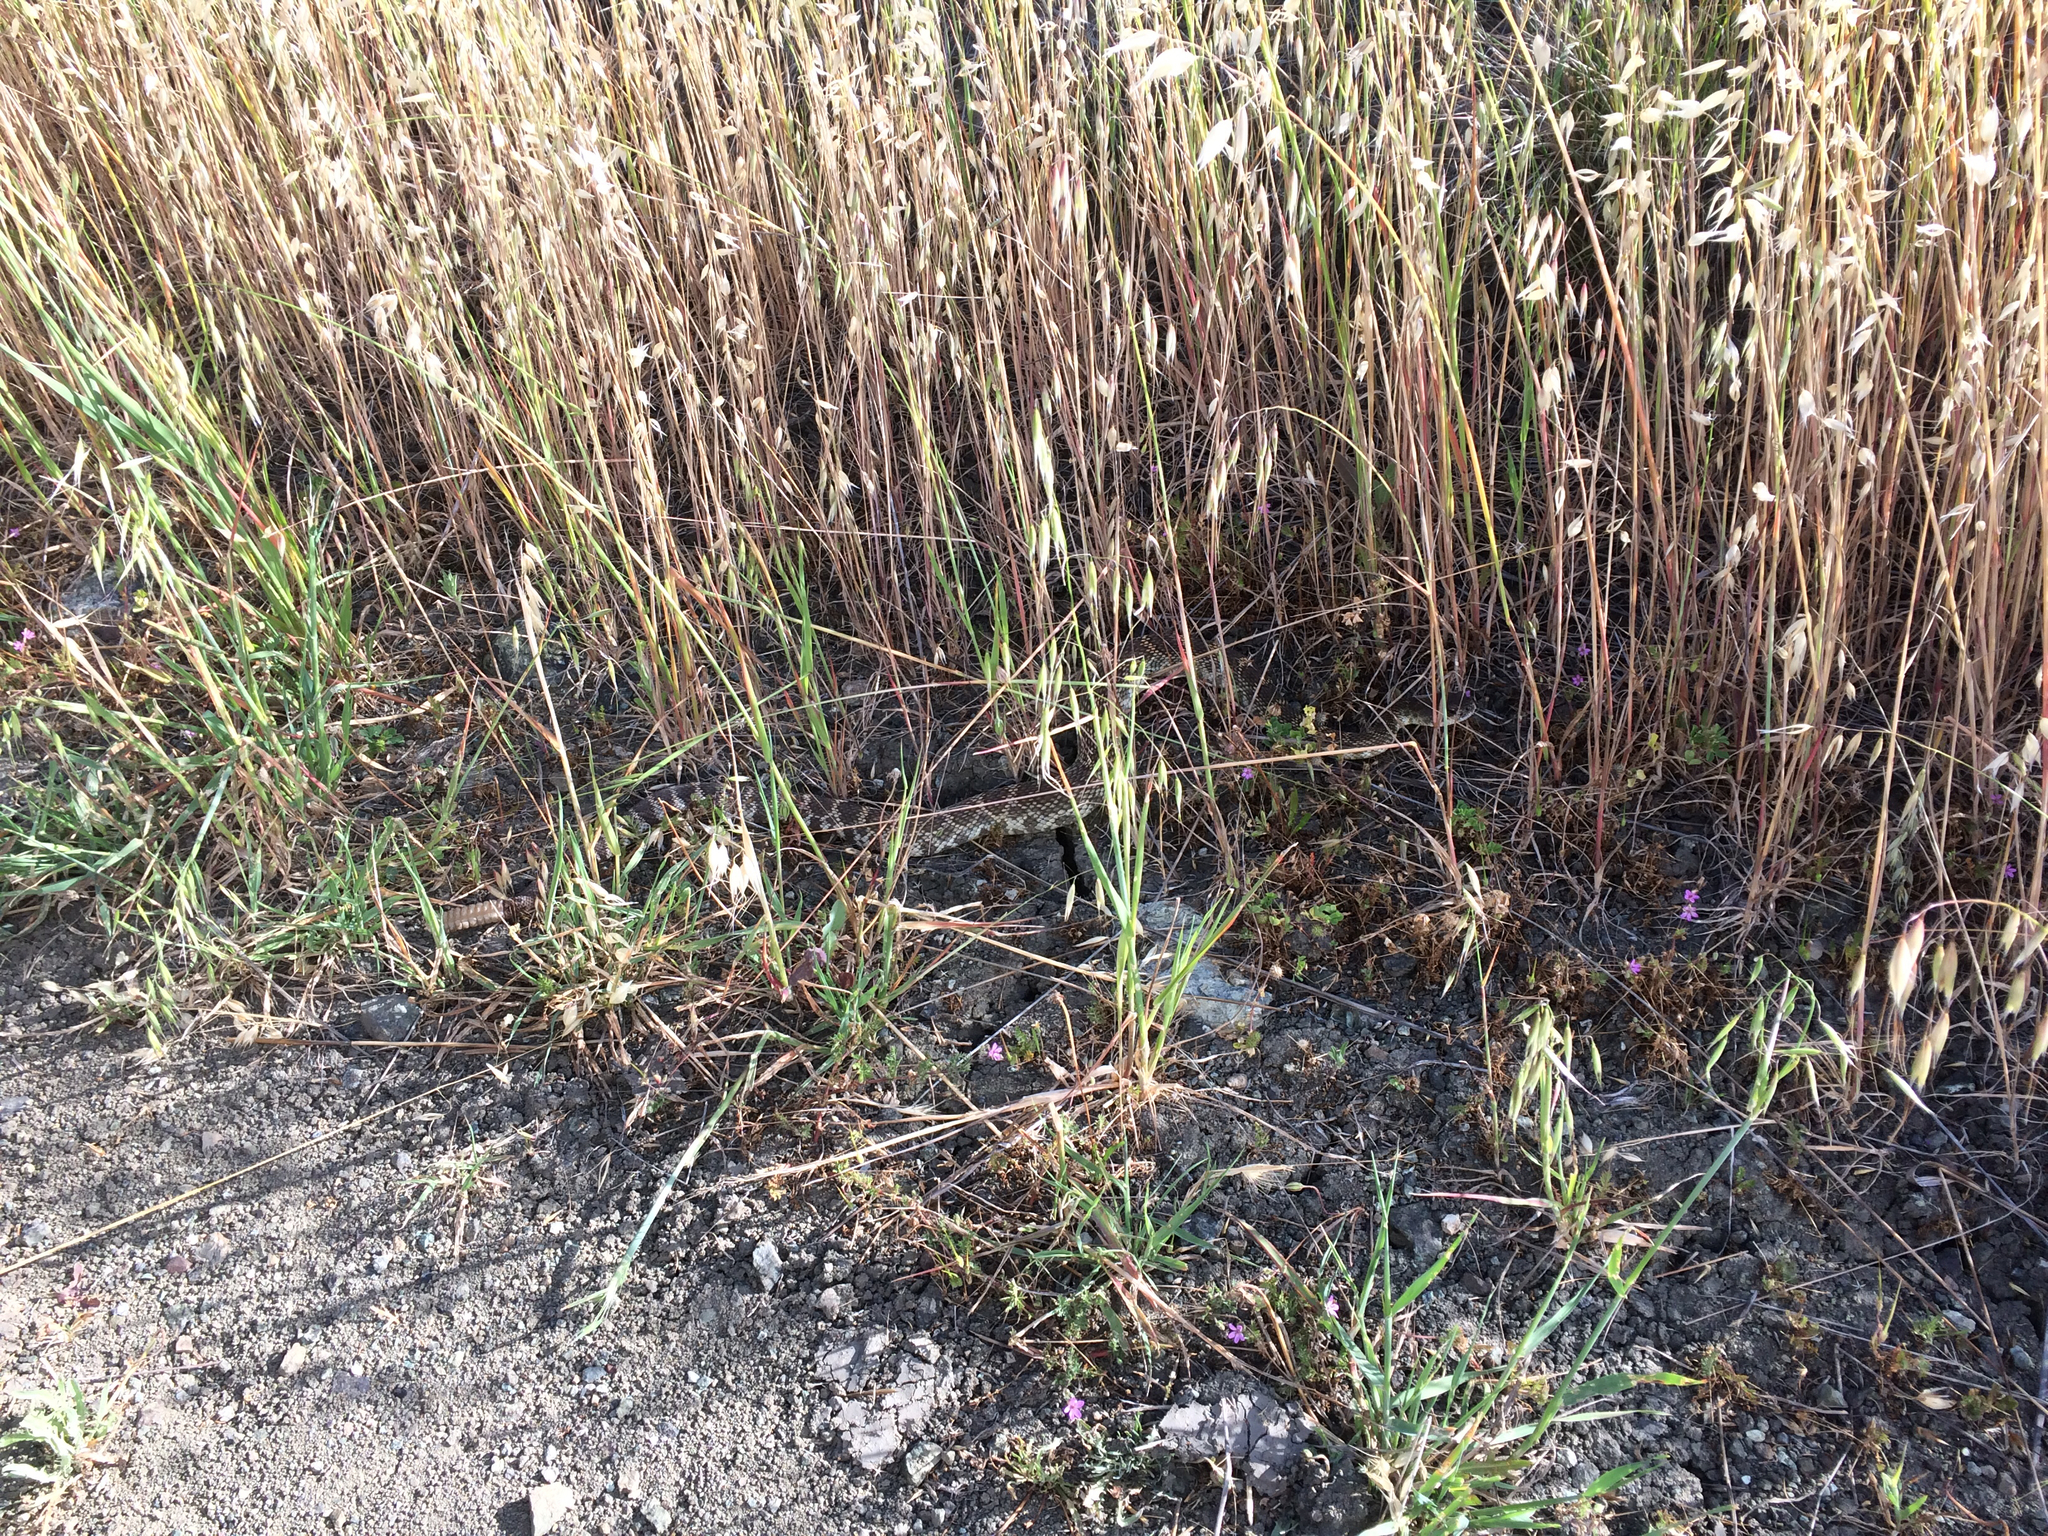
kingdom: Animalia
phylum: Chordata
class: Squamata
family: Viperidae
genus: Crotalus
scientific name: Crotalus oreganus
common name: Abyssus
